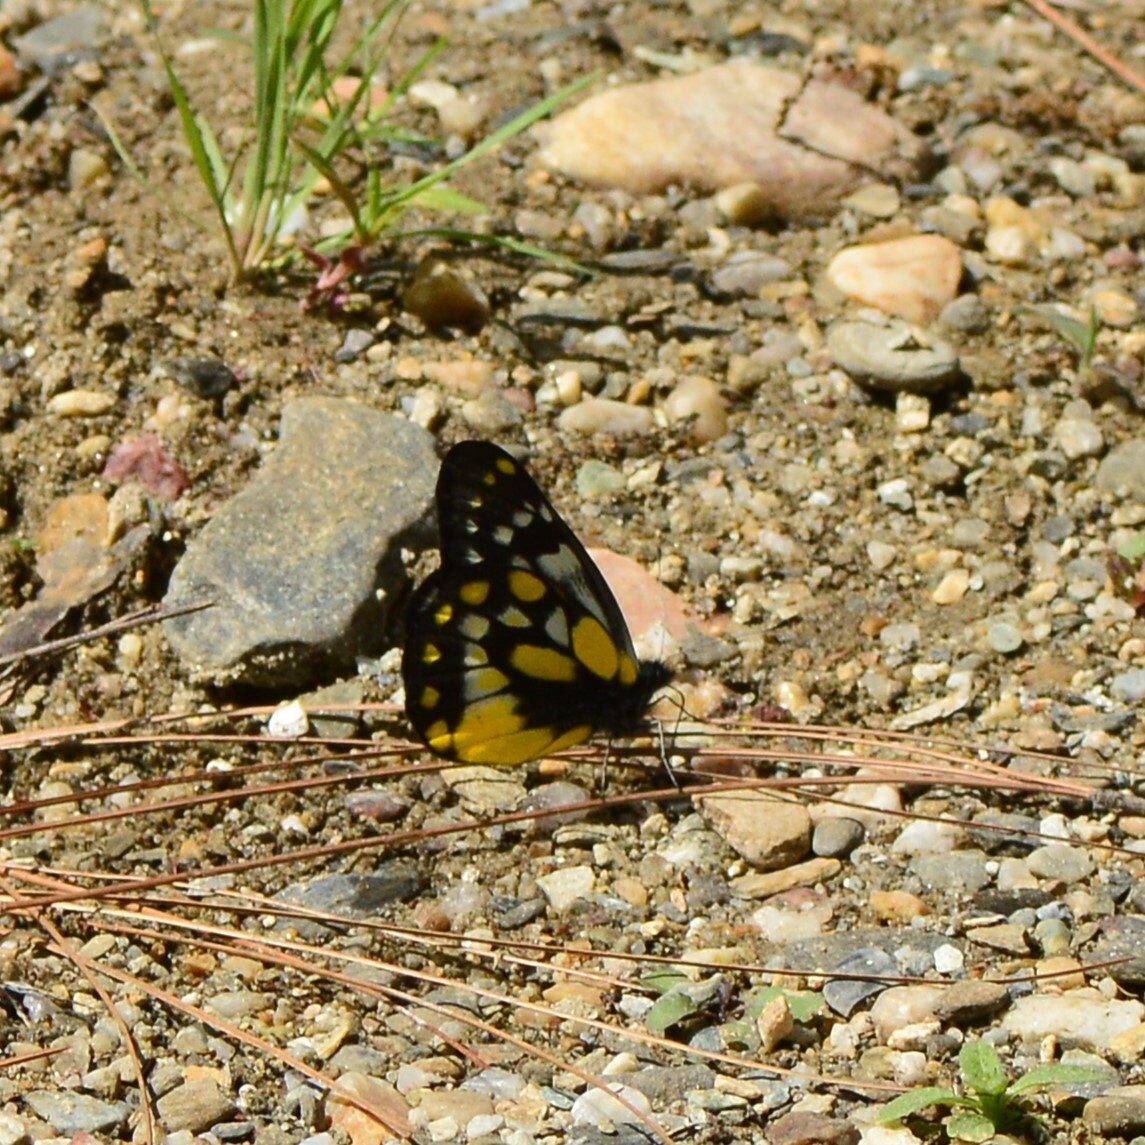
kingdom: Animalia
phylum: Arthropoda
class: Insecta
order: Lepidoptera
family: Pieridae
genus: Delias
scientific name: Delias belladonna
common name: Hill jezebel
